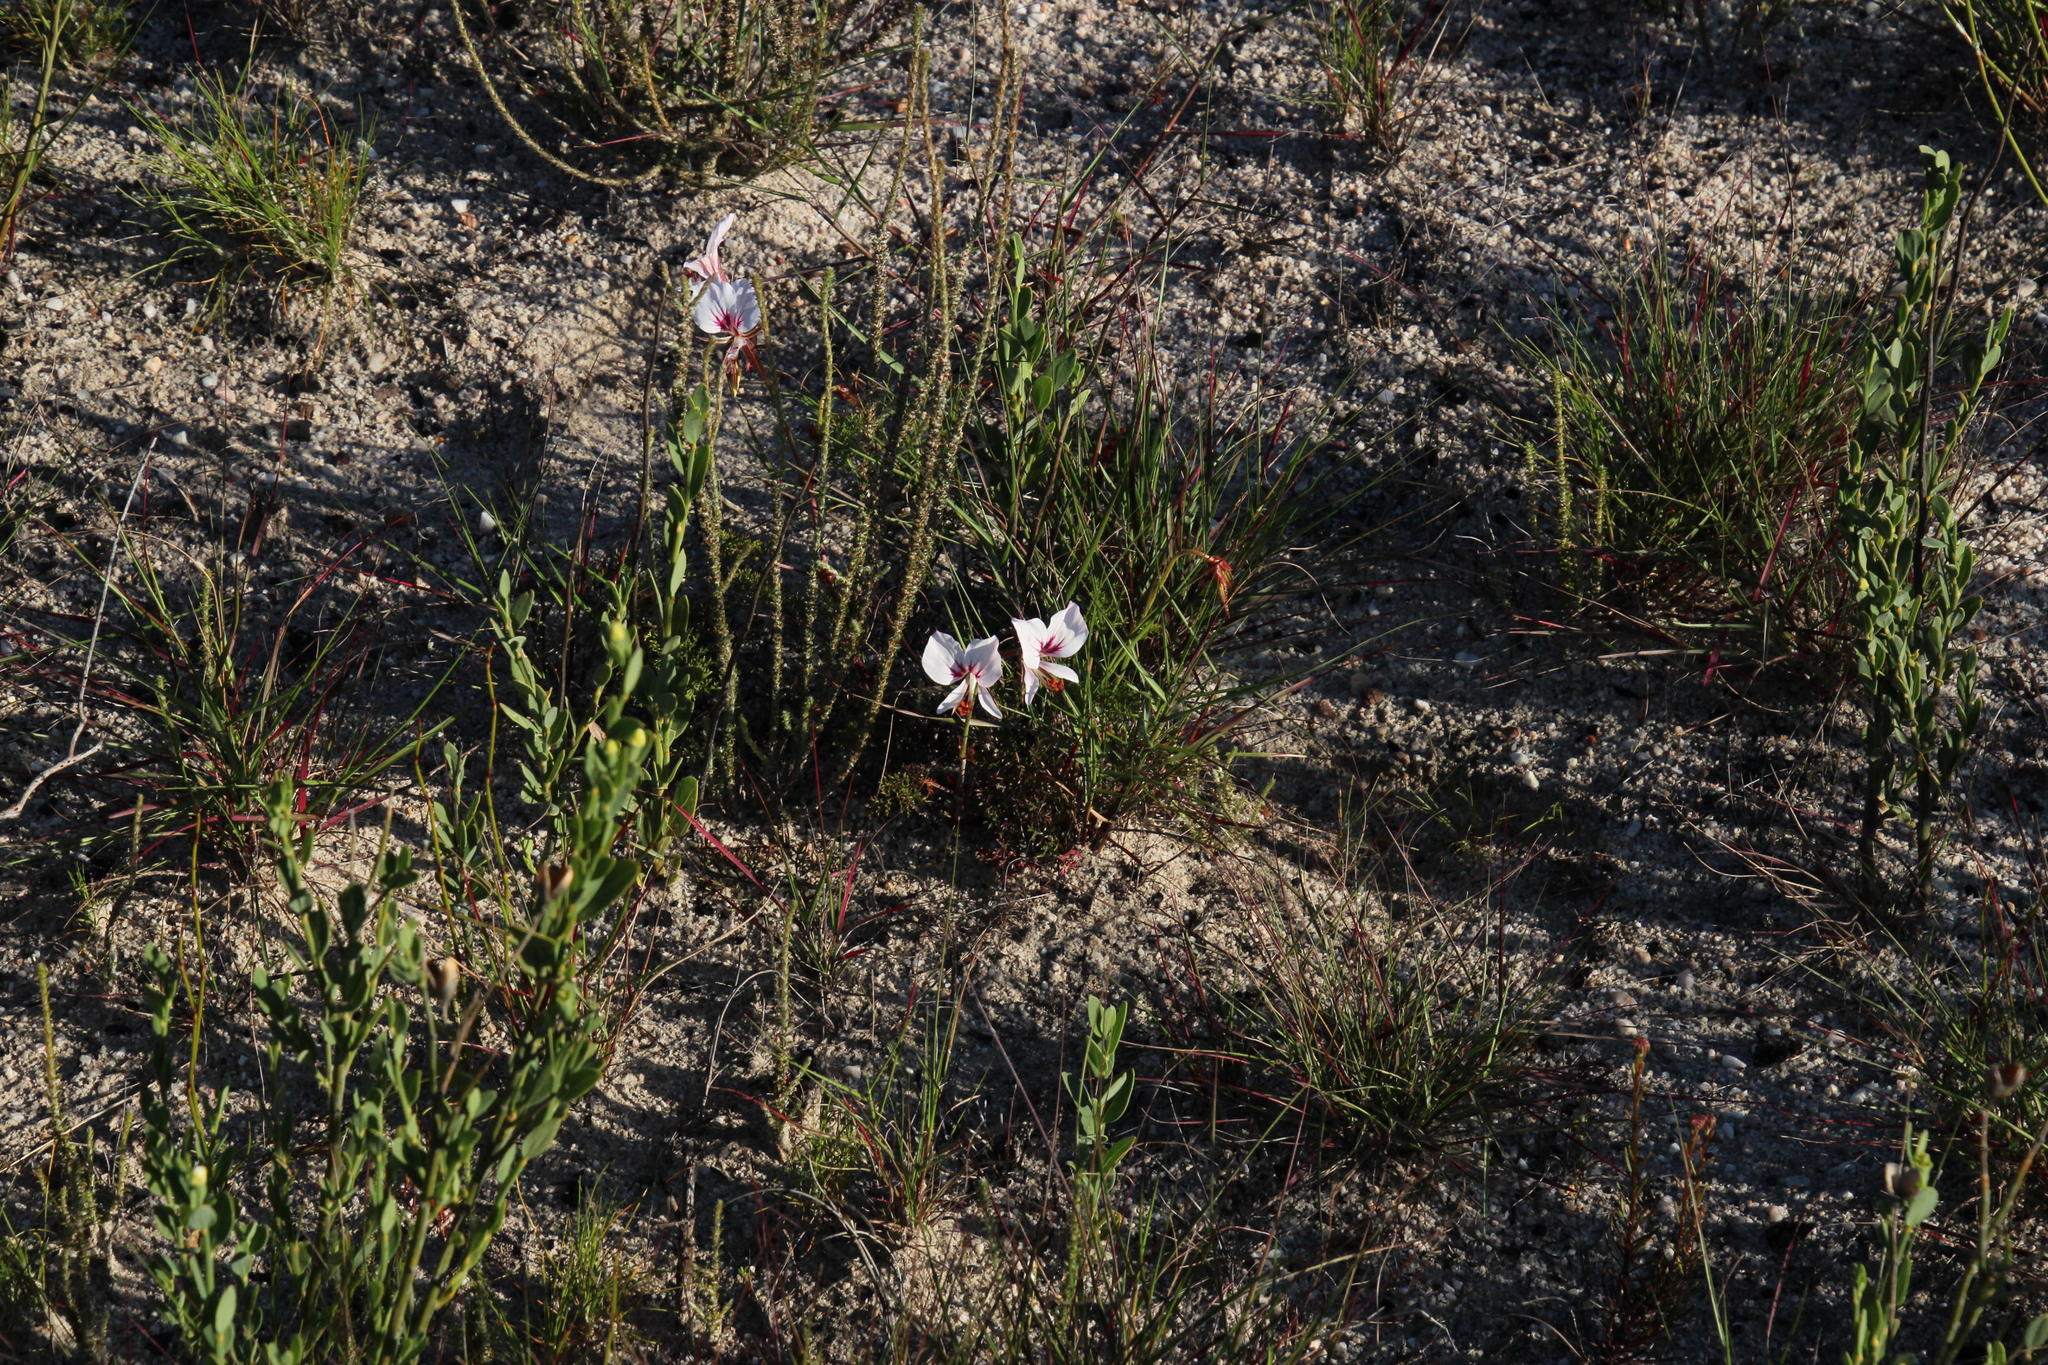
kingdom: Plantae
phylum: Tracheophyta
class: Magnoliopsida
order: Geraniales
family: Geraniaceae
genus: Pelargonium
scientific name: Pelargonium myrrhifolium
